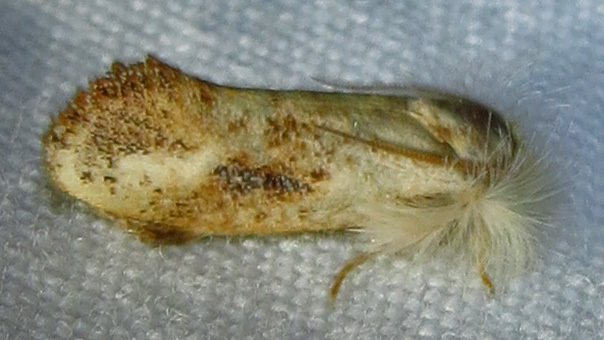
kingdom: Animalia
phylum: Arthropoda
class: Insecta
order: Lepidoptera
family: Tineidae
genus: Acrolophus
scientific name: Acrolophus mycetophagus
